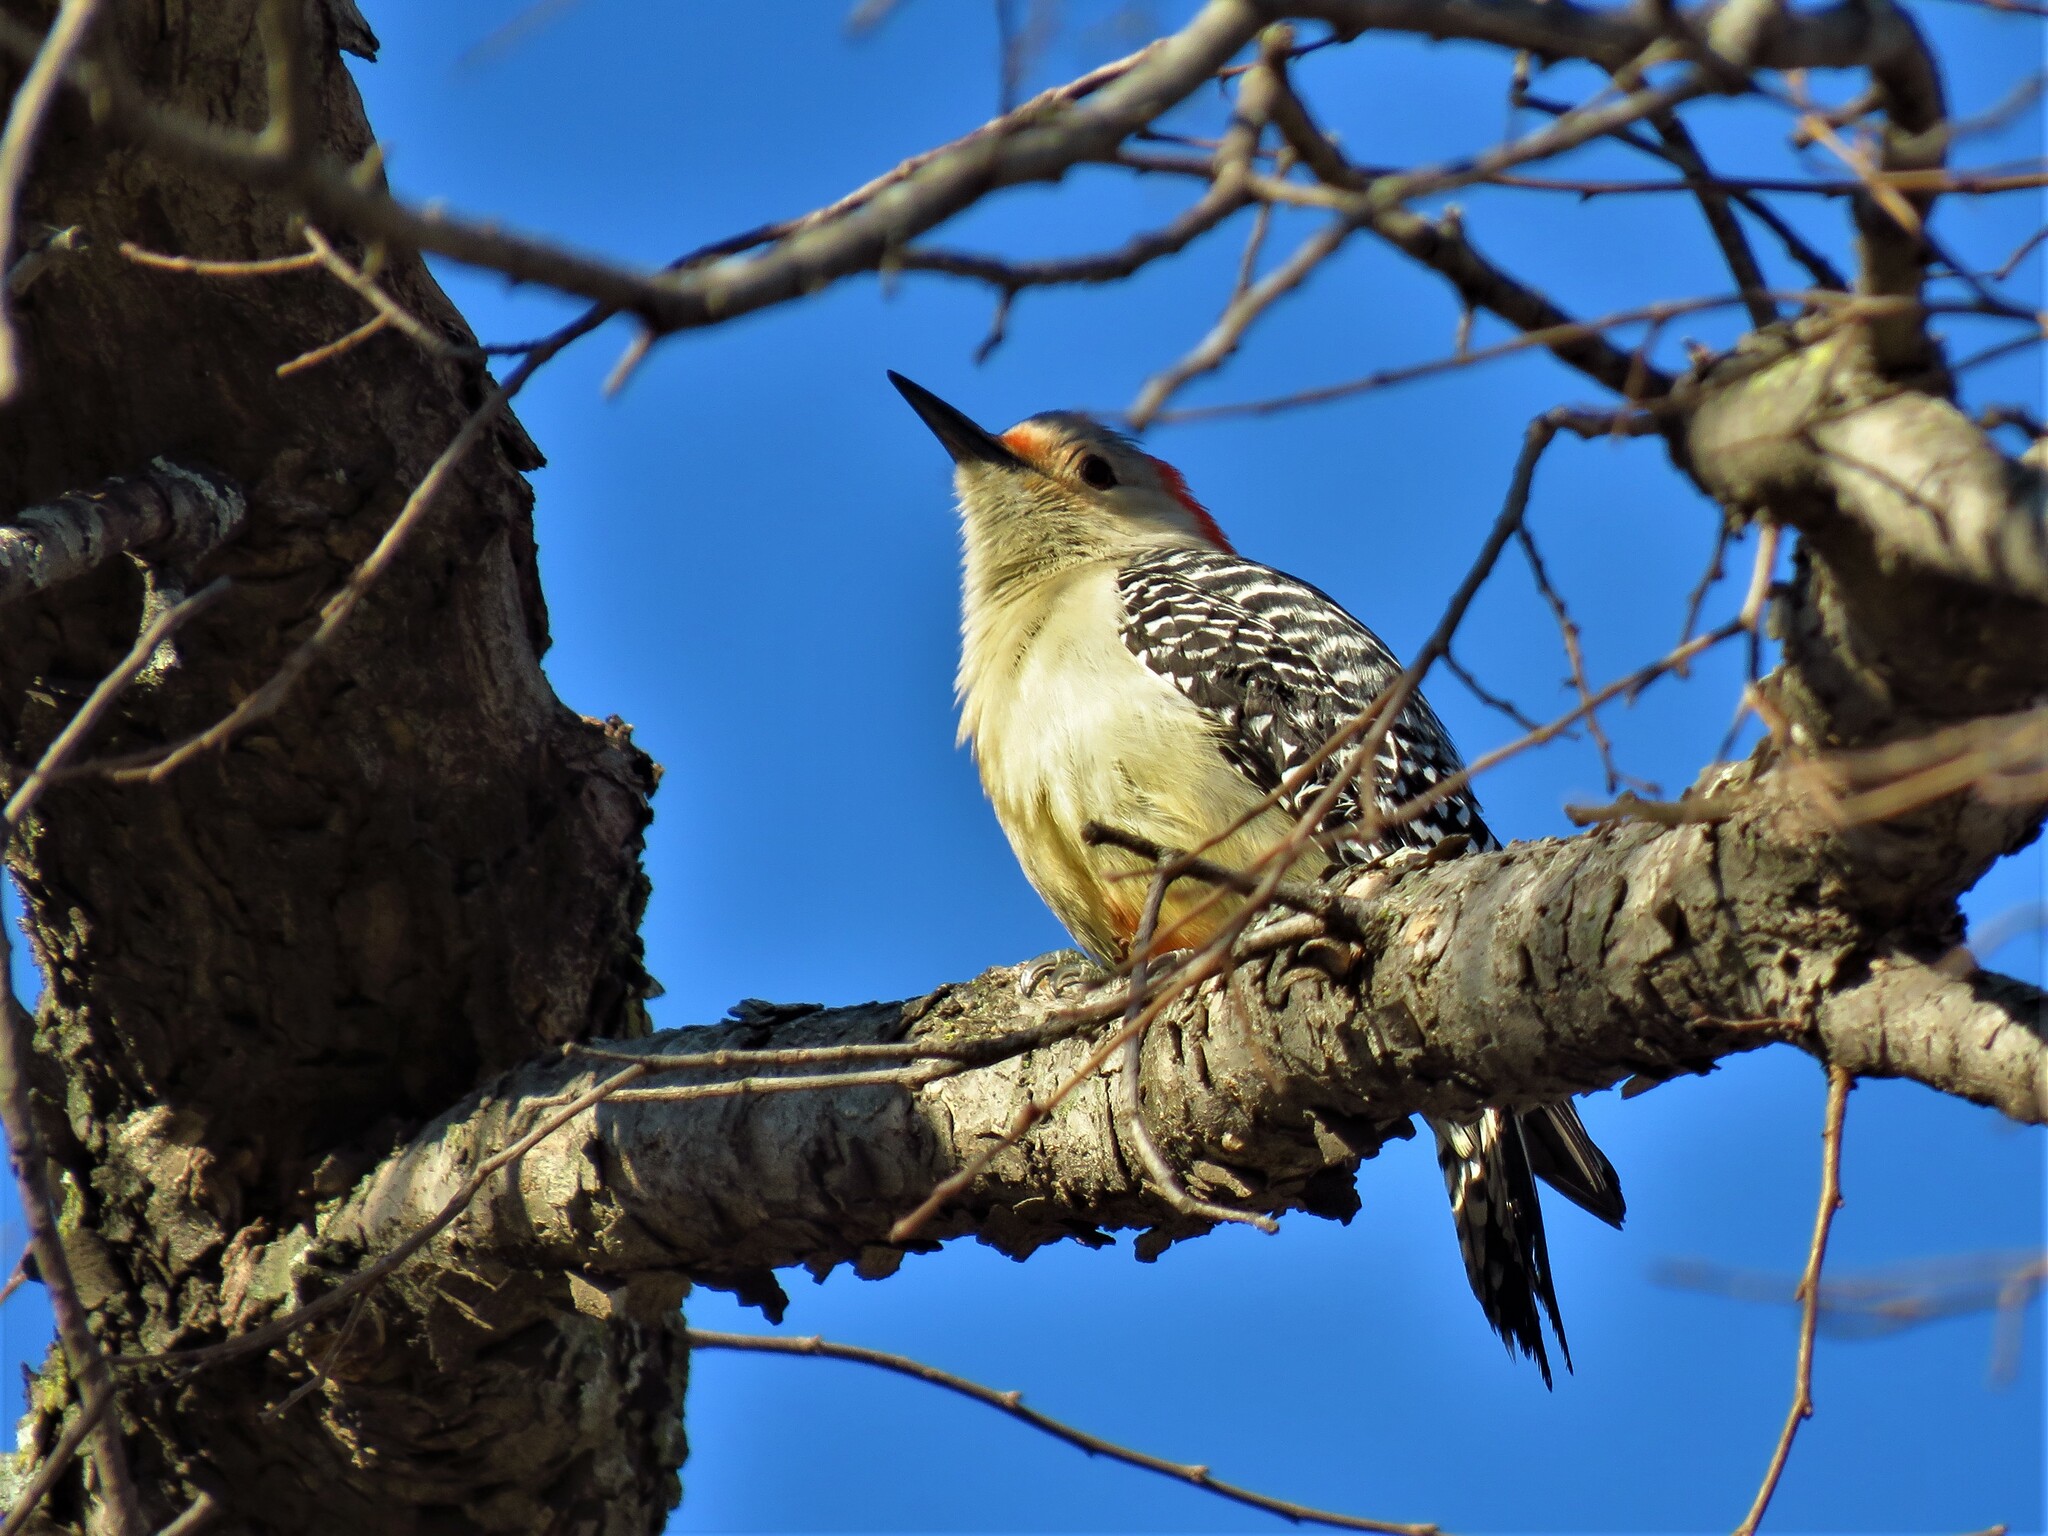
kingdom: Animalia
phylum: Chordata
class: Aves
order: Piciformes
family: Picidae
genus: Melanerpes
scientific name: Melanerpes carolinus
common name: Red-bellied woodpecker
